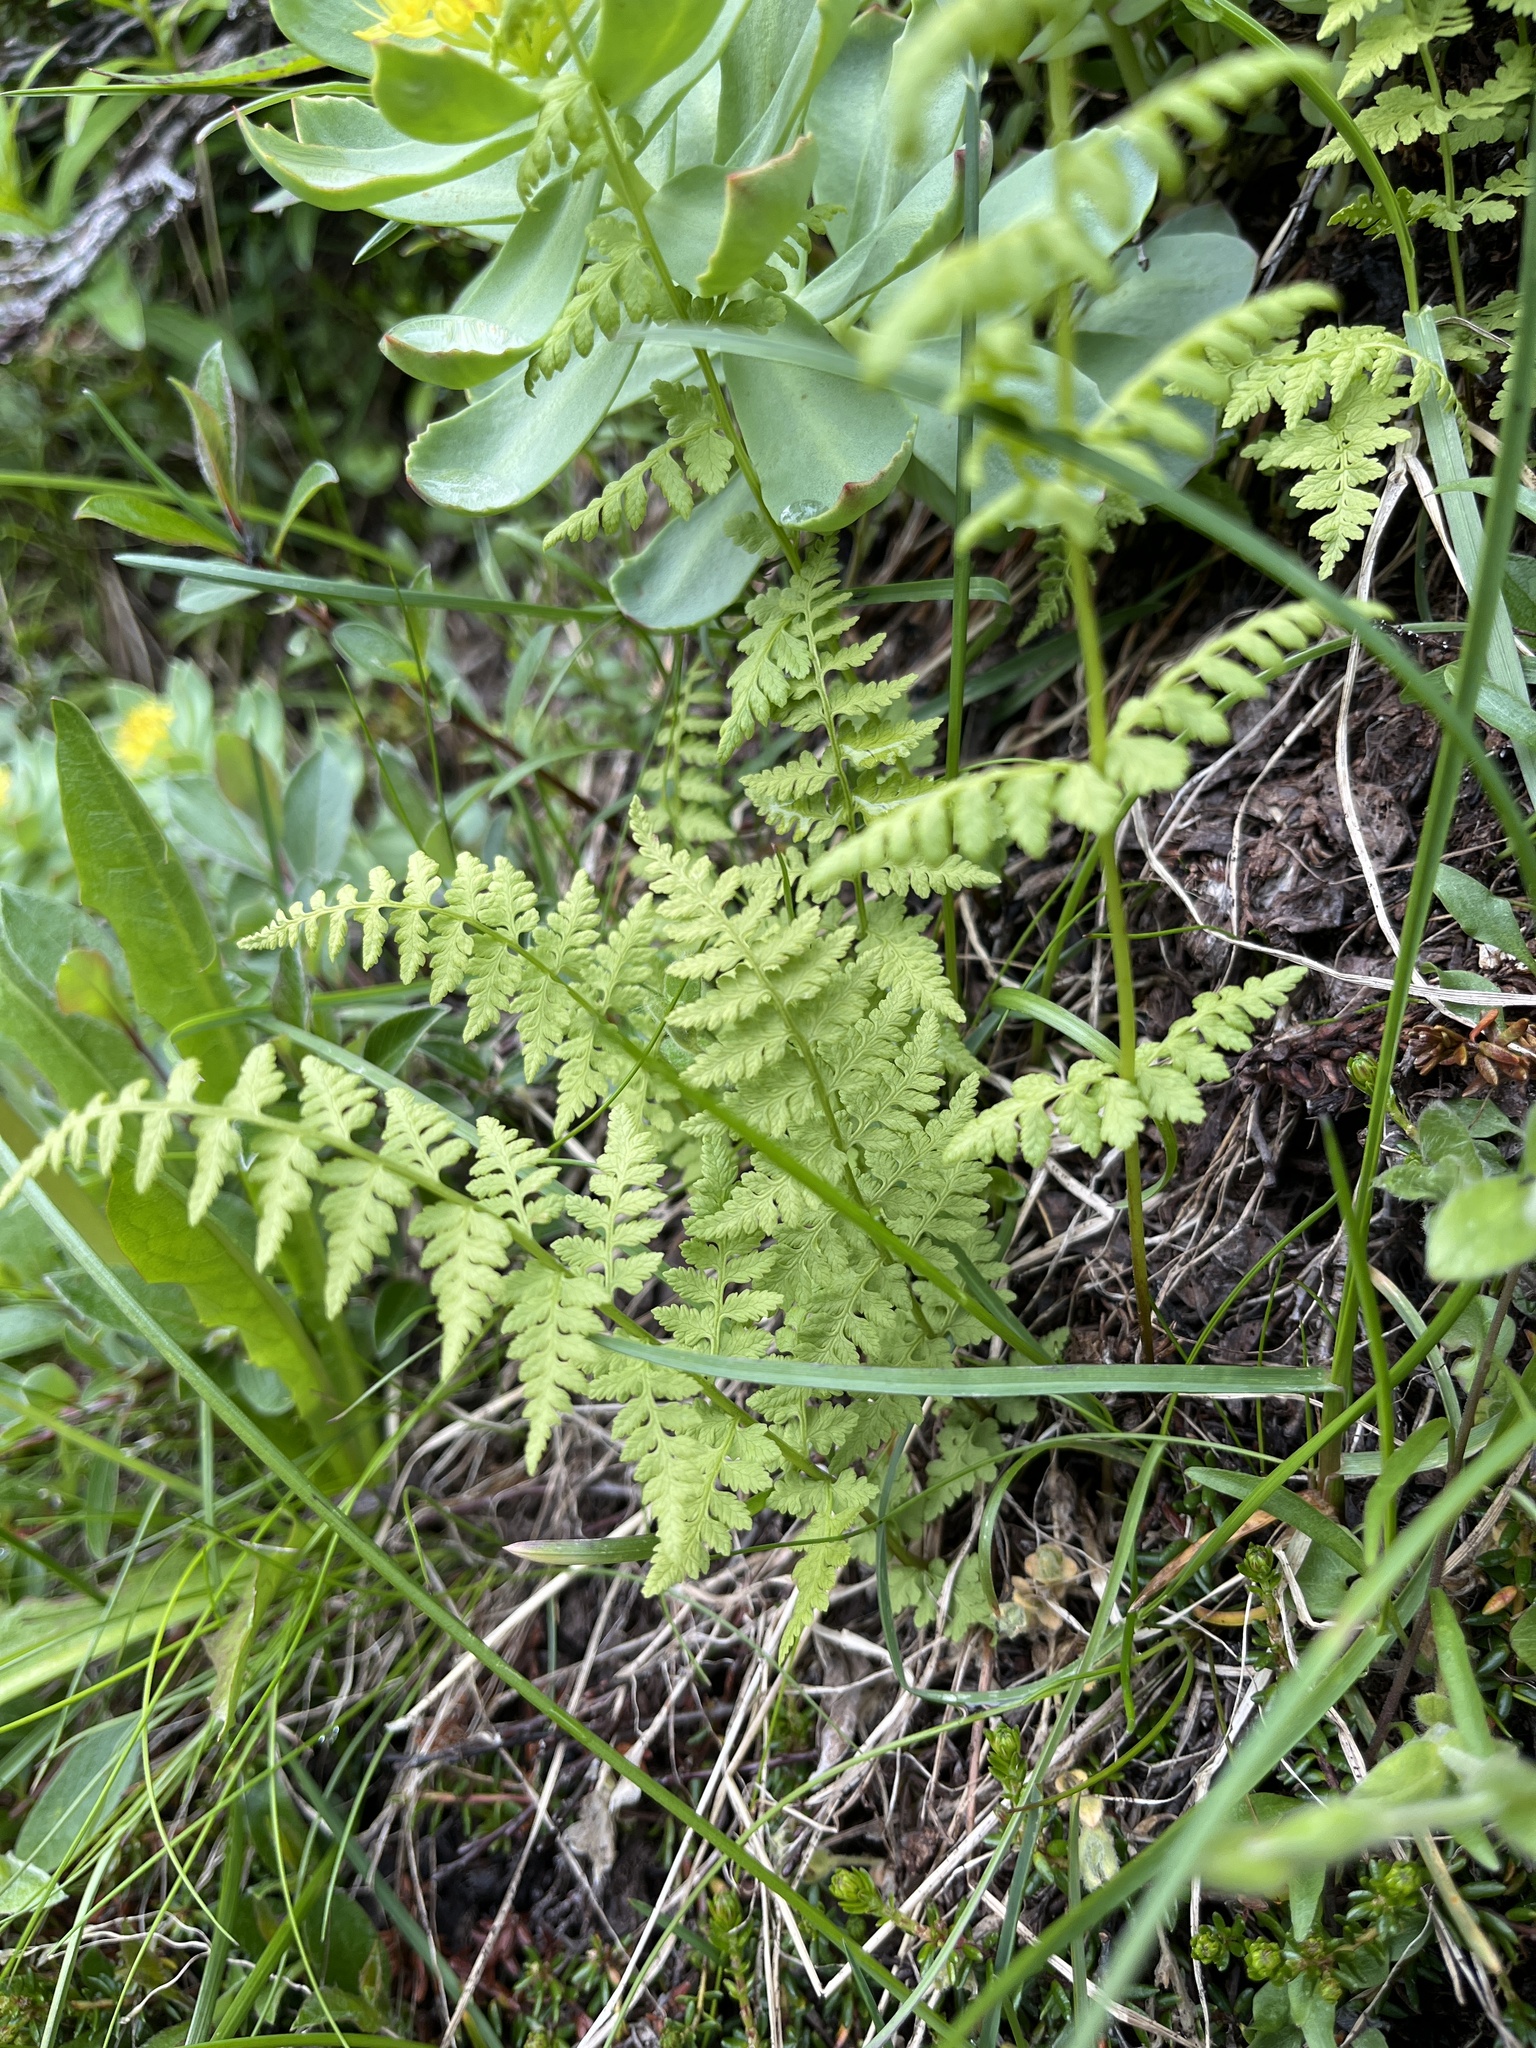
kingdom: Plantae
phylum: Tracheophyta
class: Polypodiopsida
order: Polypodiales
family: Cystopteridaceae
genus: Cystopteris
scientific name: Cystopteris fragilis
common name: Brittle bladder fern
